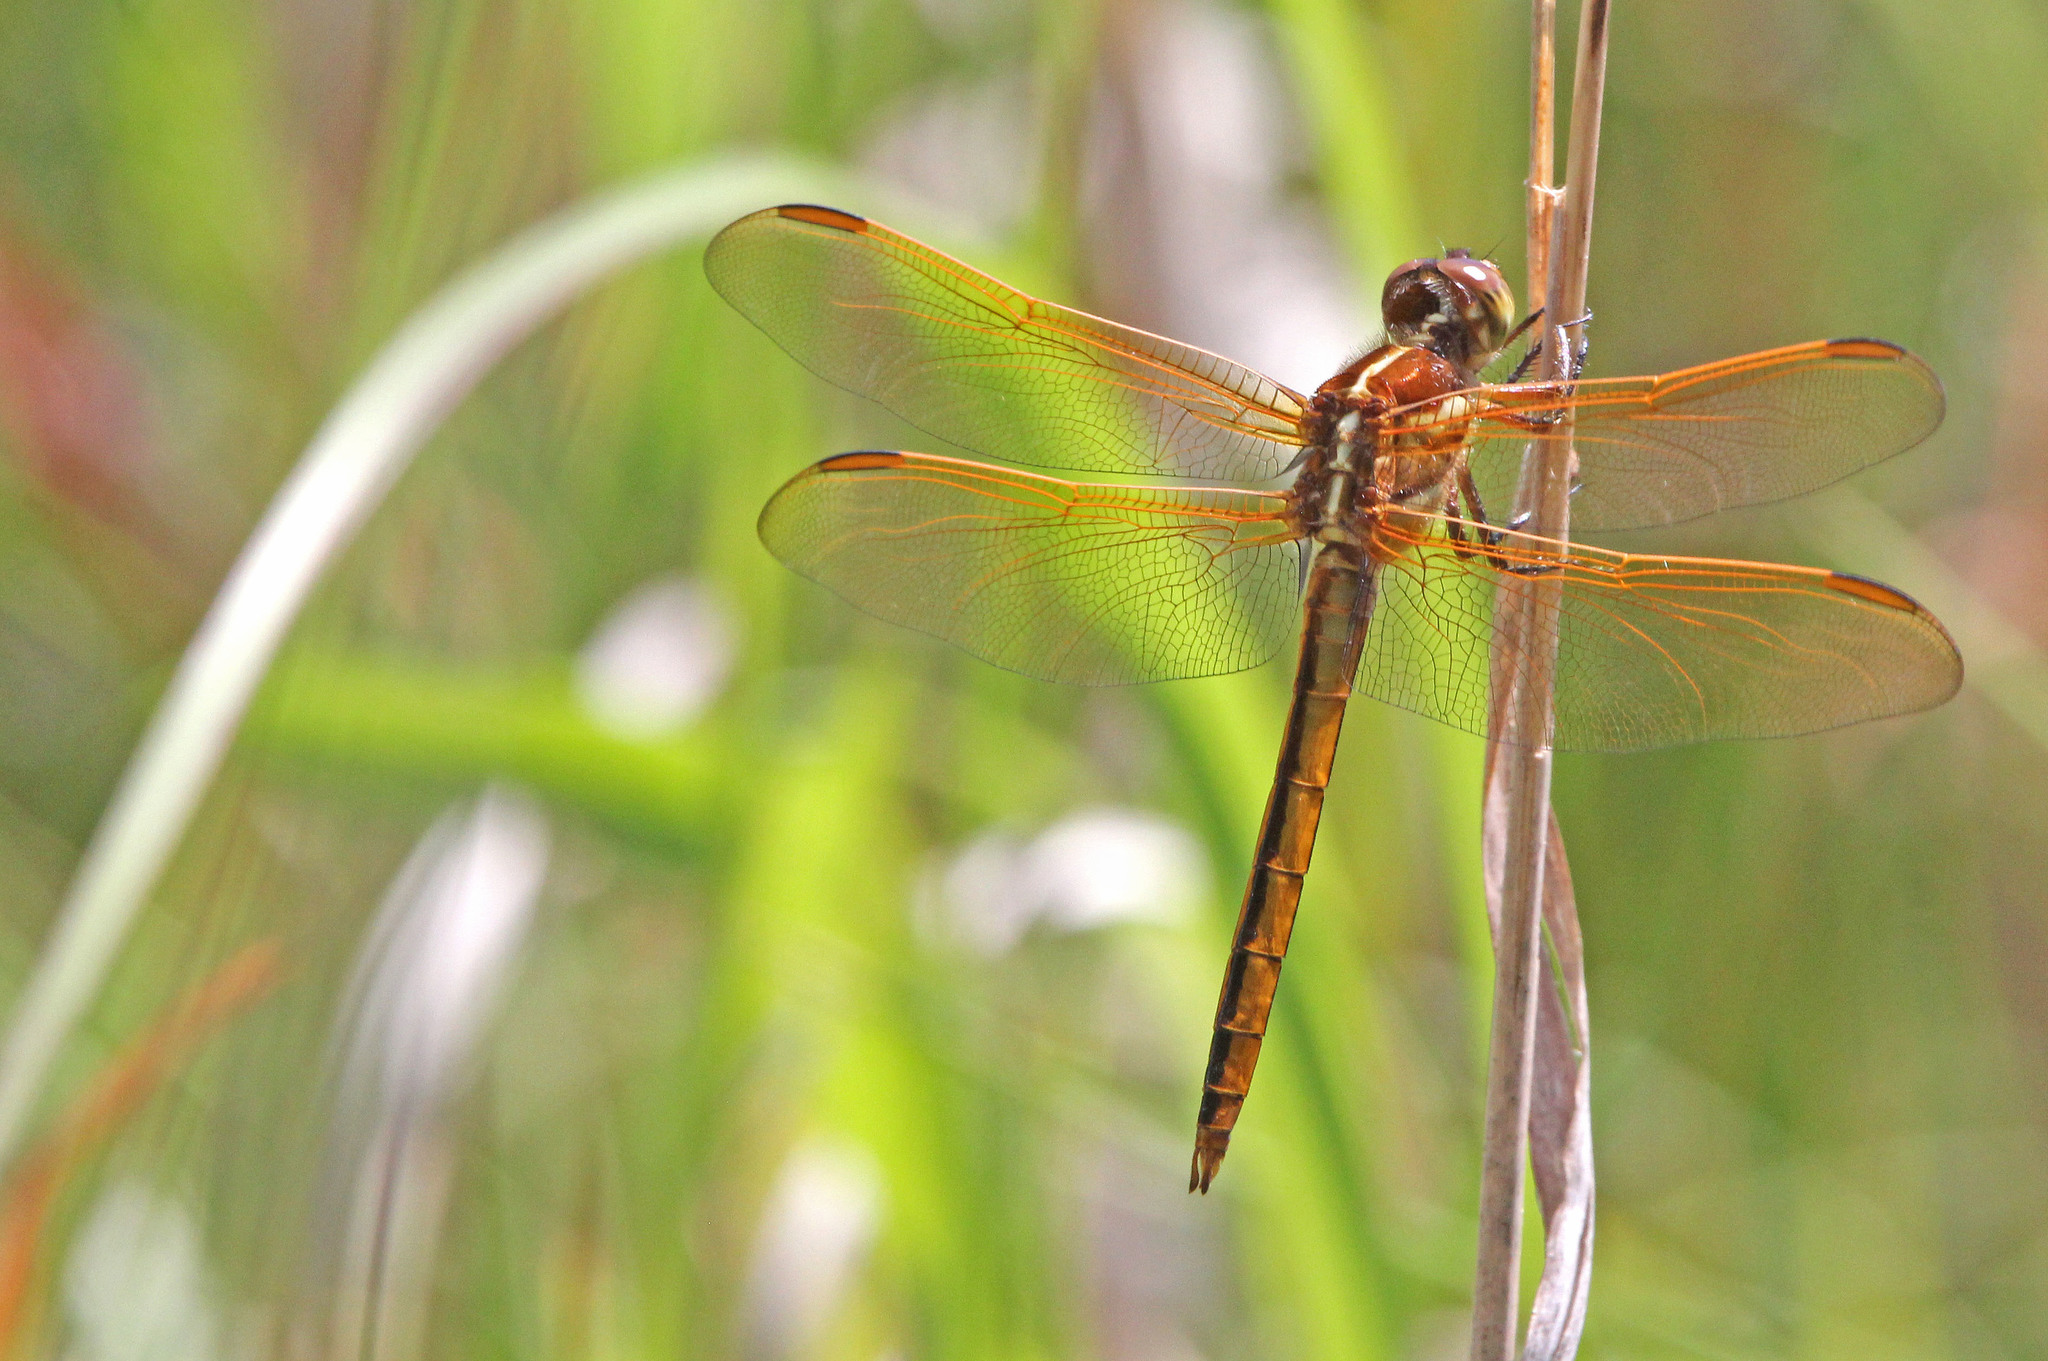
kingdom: Animalia
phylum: Arthropoda
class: Insecta
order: Odonata
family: Libellulidae
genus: Libellula
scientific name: Libellula auripennis
